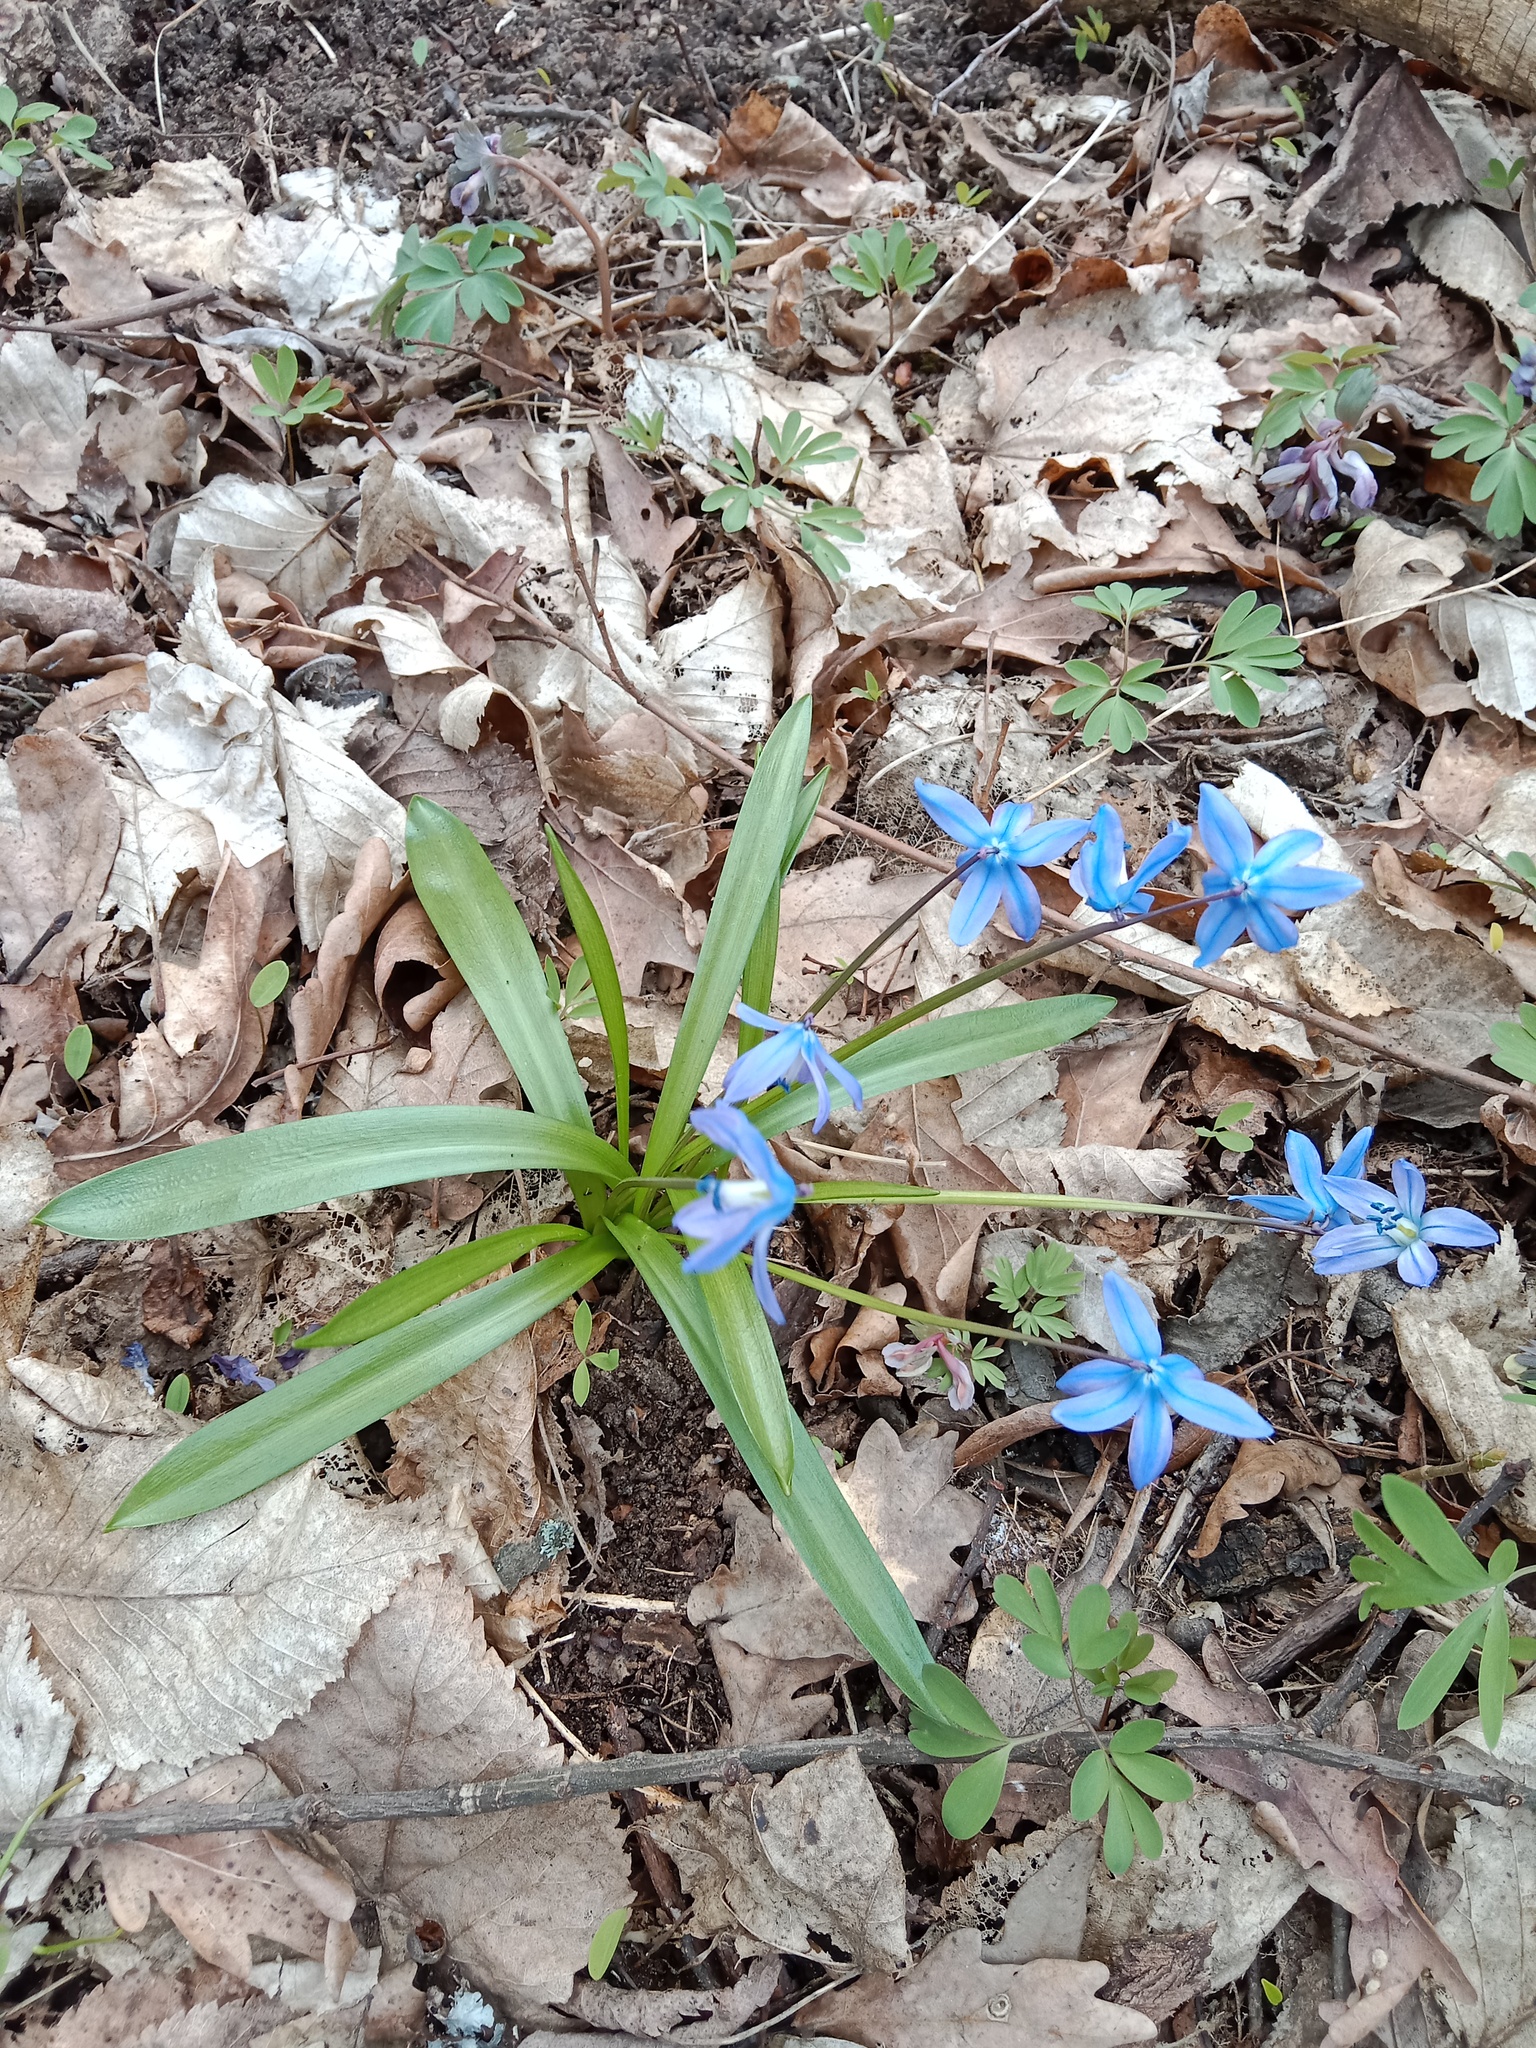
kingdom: Plantae
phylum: Tracheophyta
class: Liliopsida
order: Asparagales
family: Asparagaceae
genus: Scilla
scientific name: Scilla siberica
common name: Siberian squill
